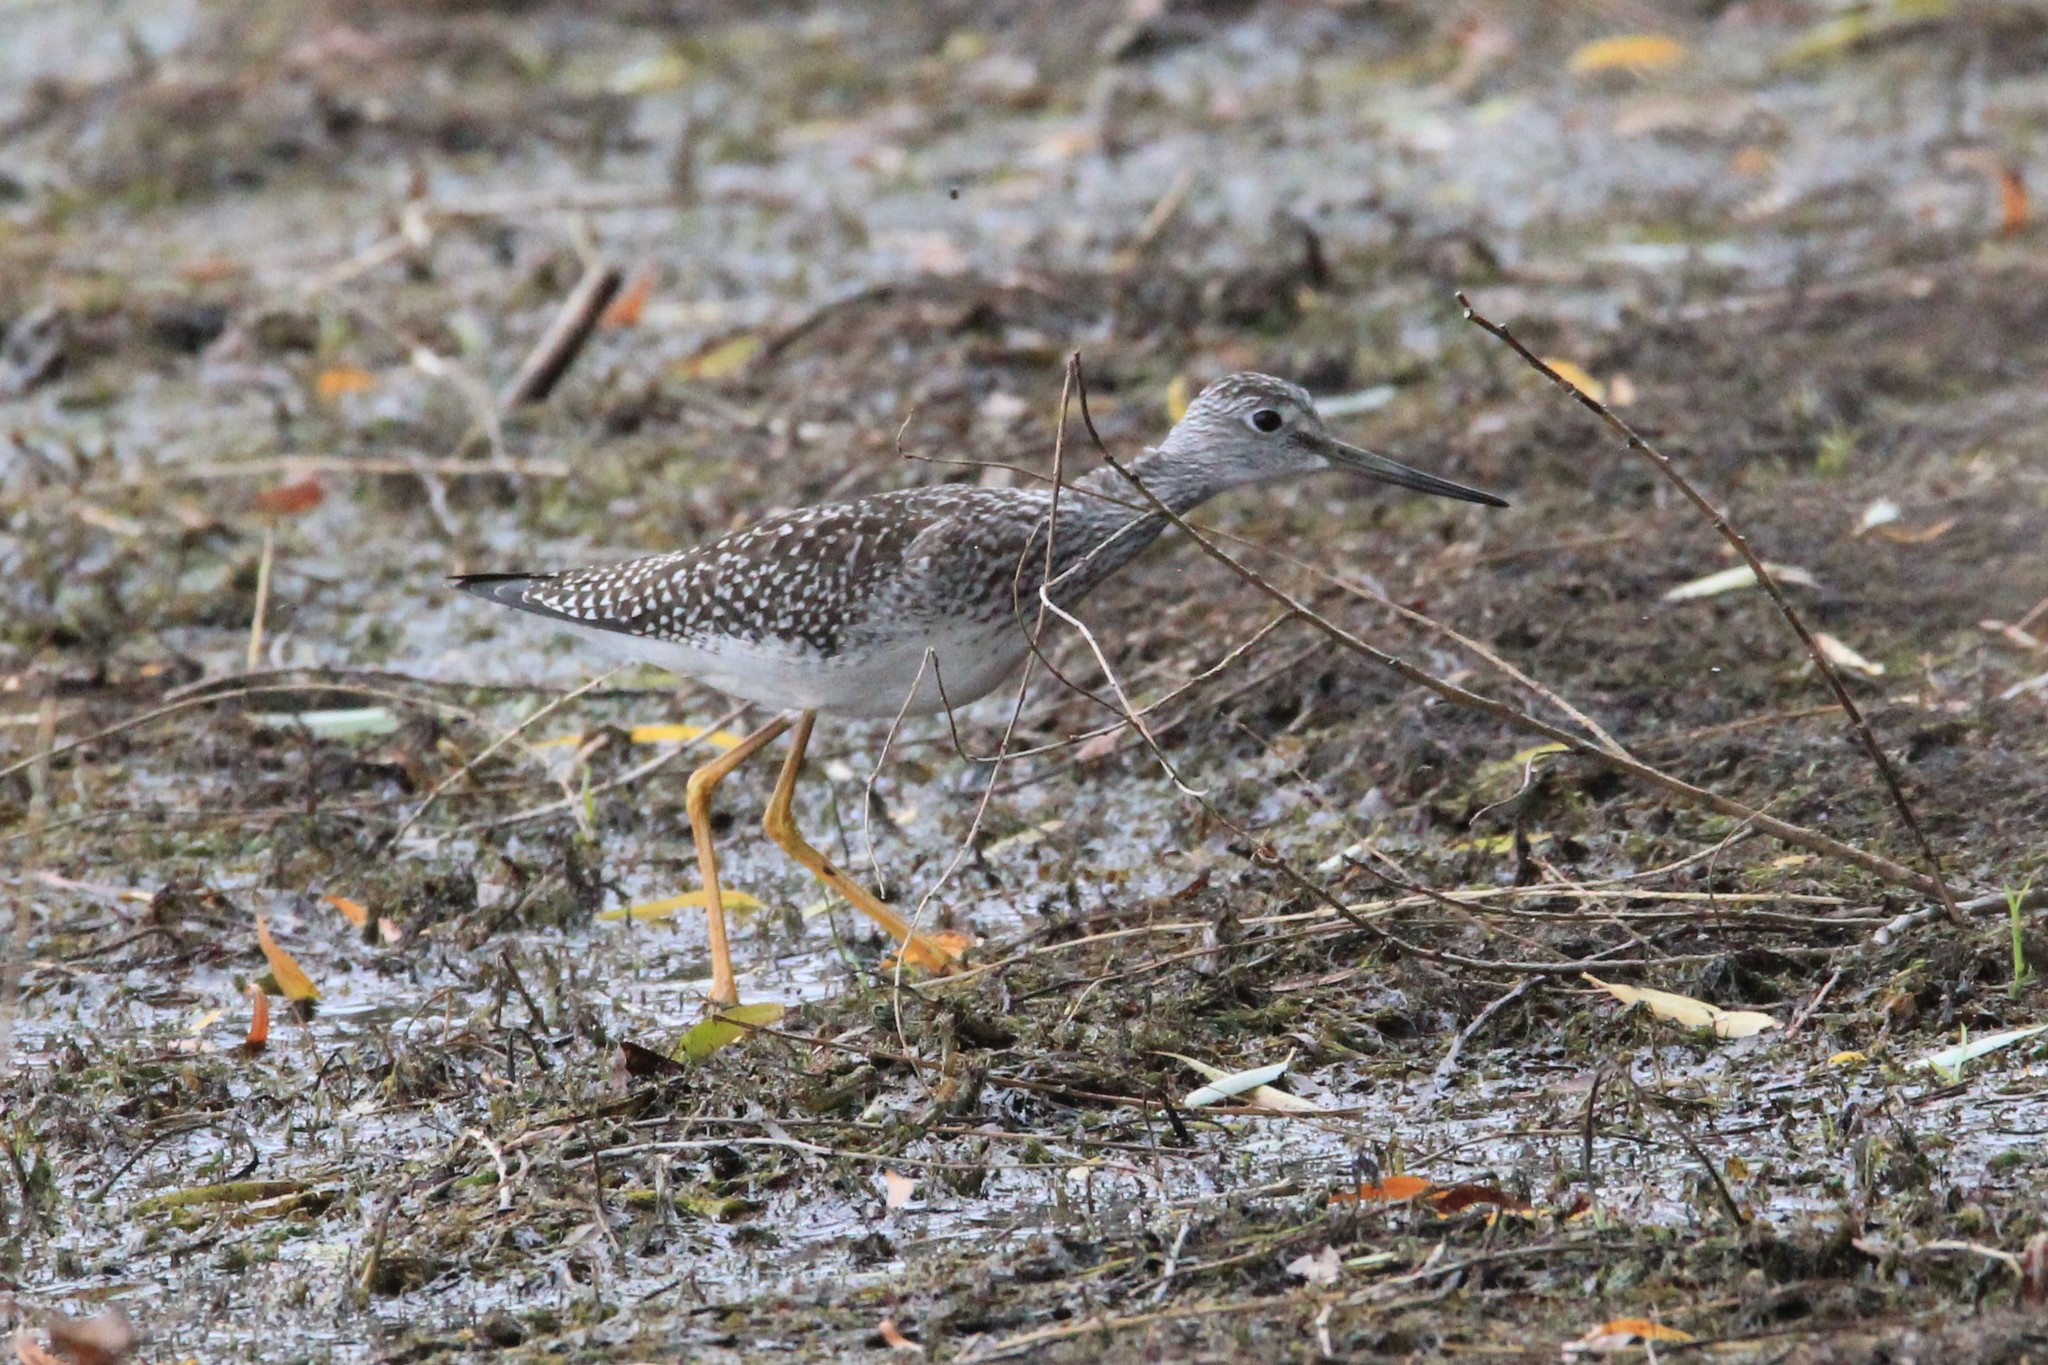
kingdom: Animalia
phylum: Chordata
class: Aves
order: Charadriiformes
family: Scolopacidae
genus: Tringa
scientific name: Tringa melanoleuca
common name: Greater yellowlegs
